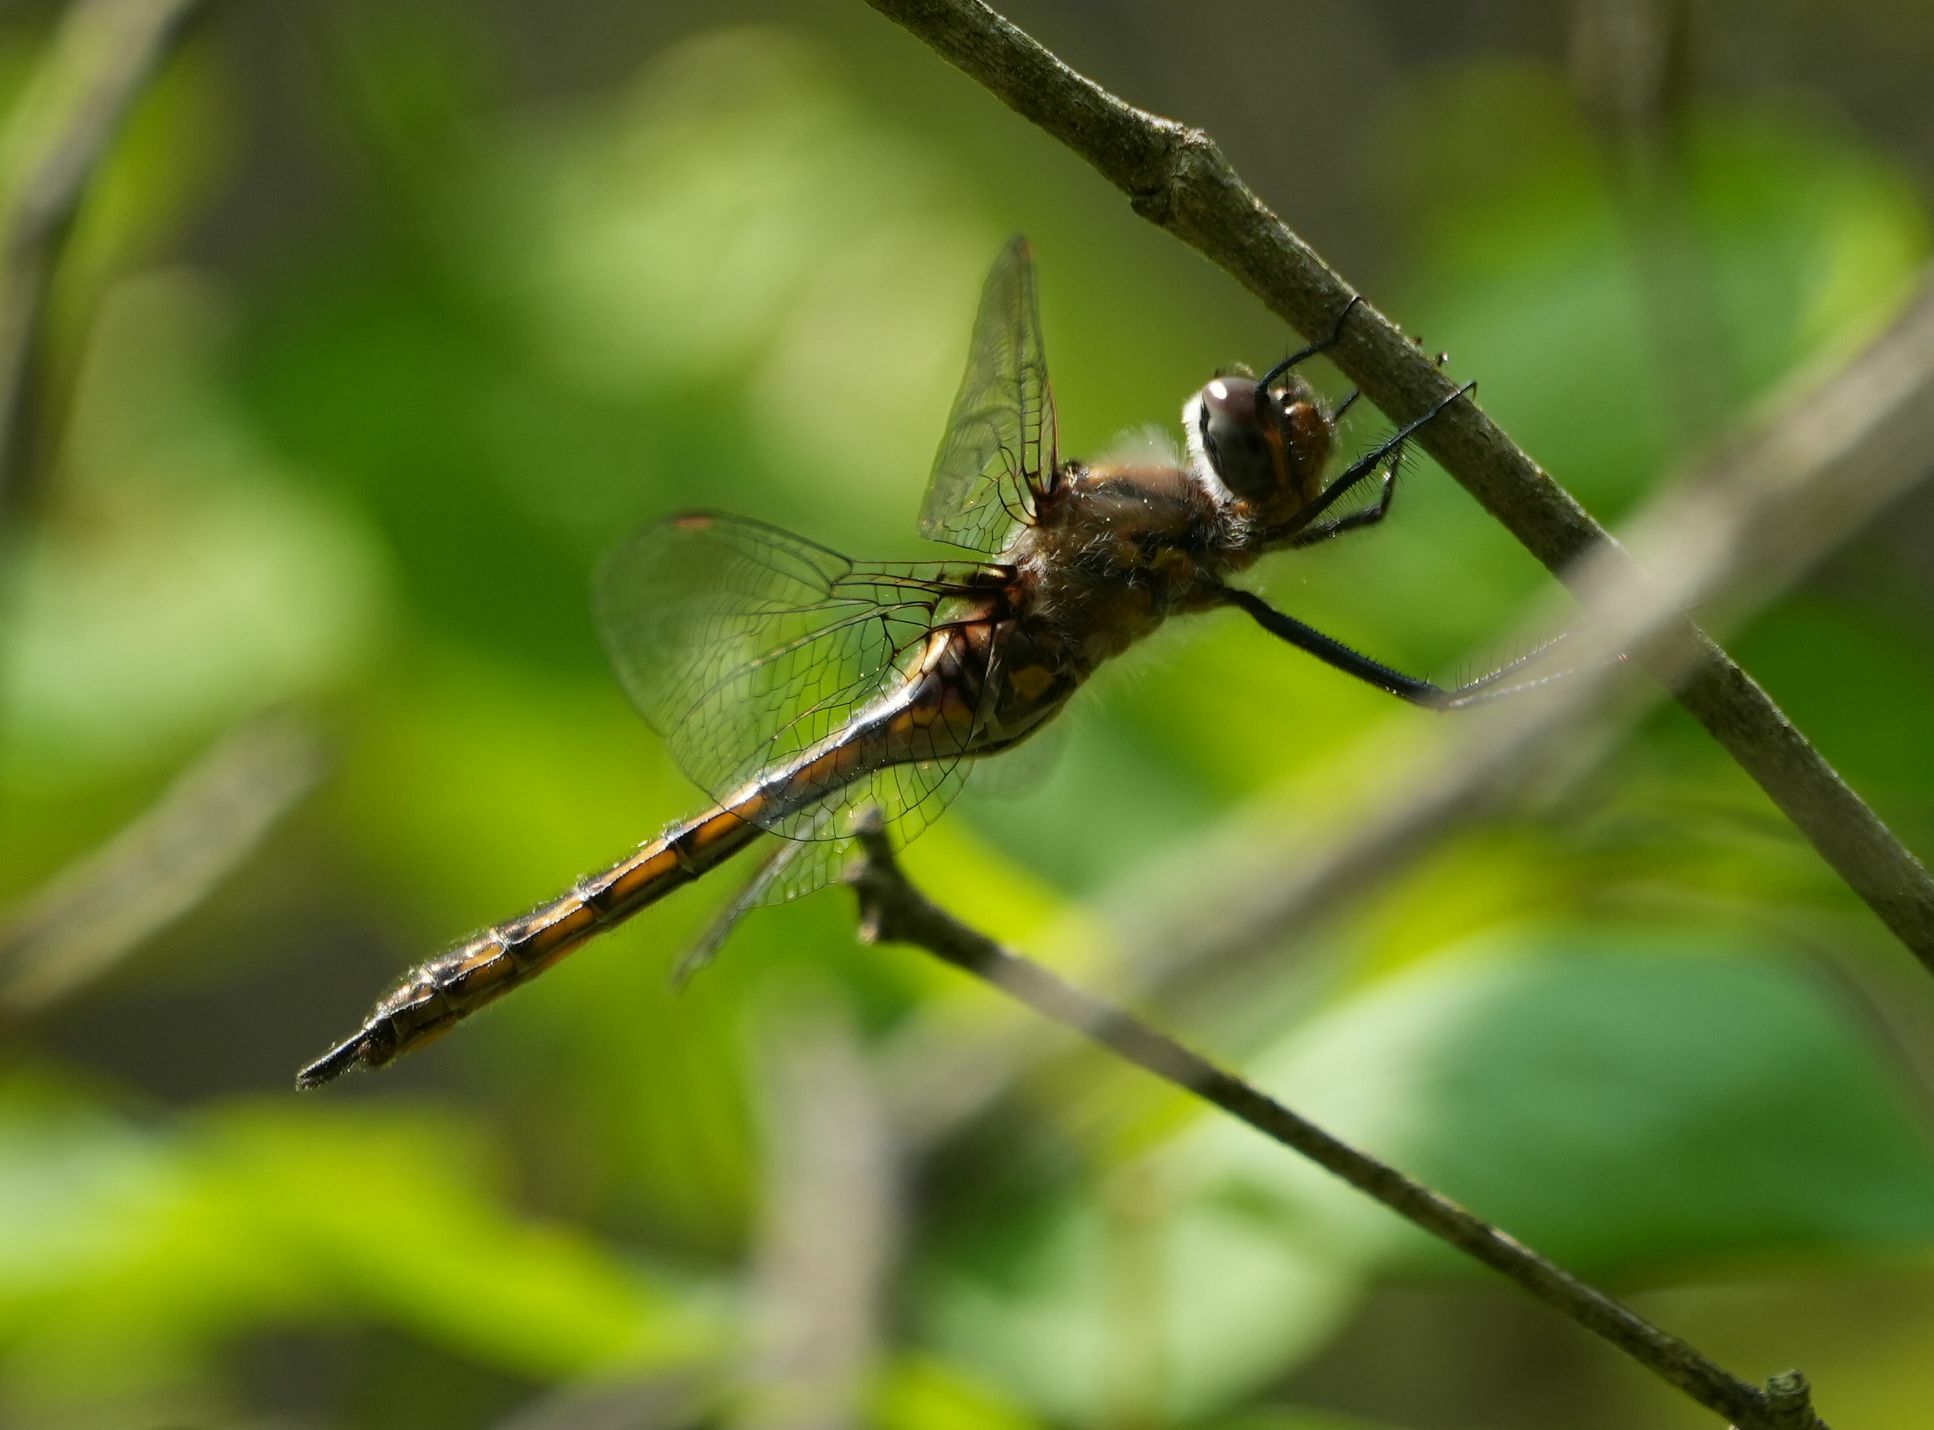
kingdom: Animalia
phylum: Arthropoda
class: Insecta
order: Odonata
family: Corduliidae
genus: Epitheca
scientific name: Epitheca spinigera
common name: Spiny baskettail
